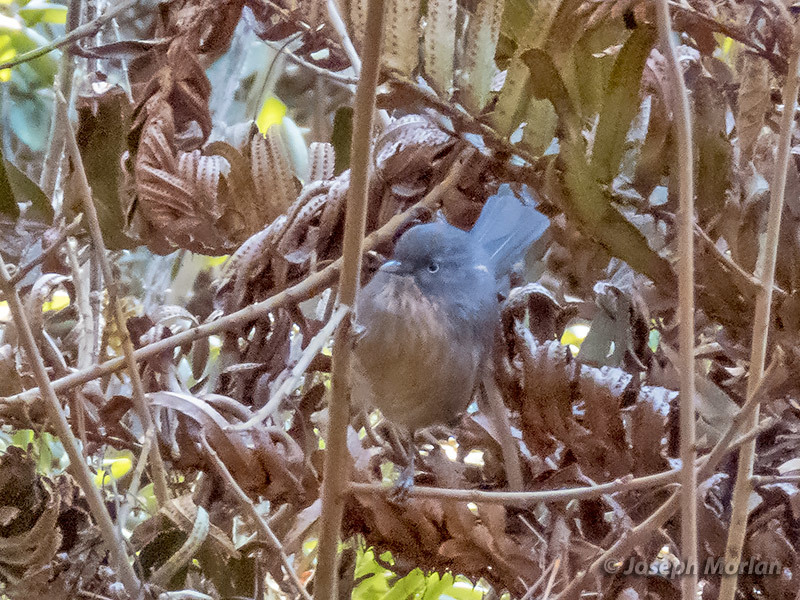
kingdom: Animalia
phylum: Chordata
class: Aves
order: Passeriformes
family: Sylviidae
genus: Chamaea
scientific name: Chamaea fasciata
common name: Wrentit
